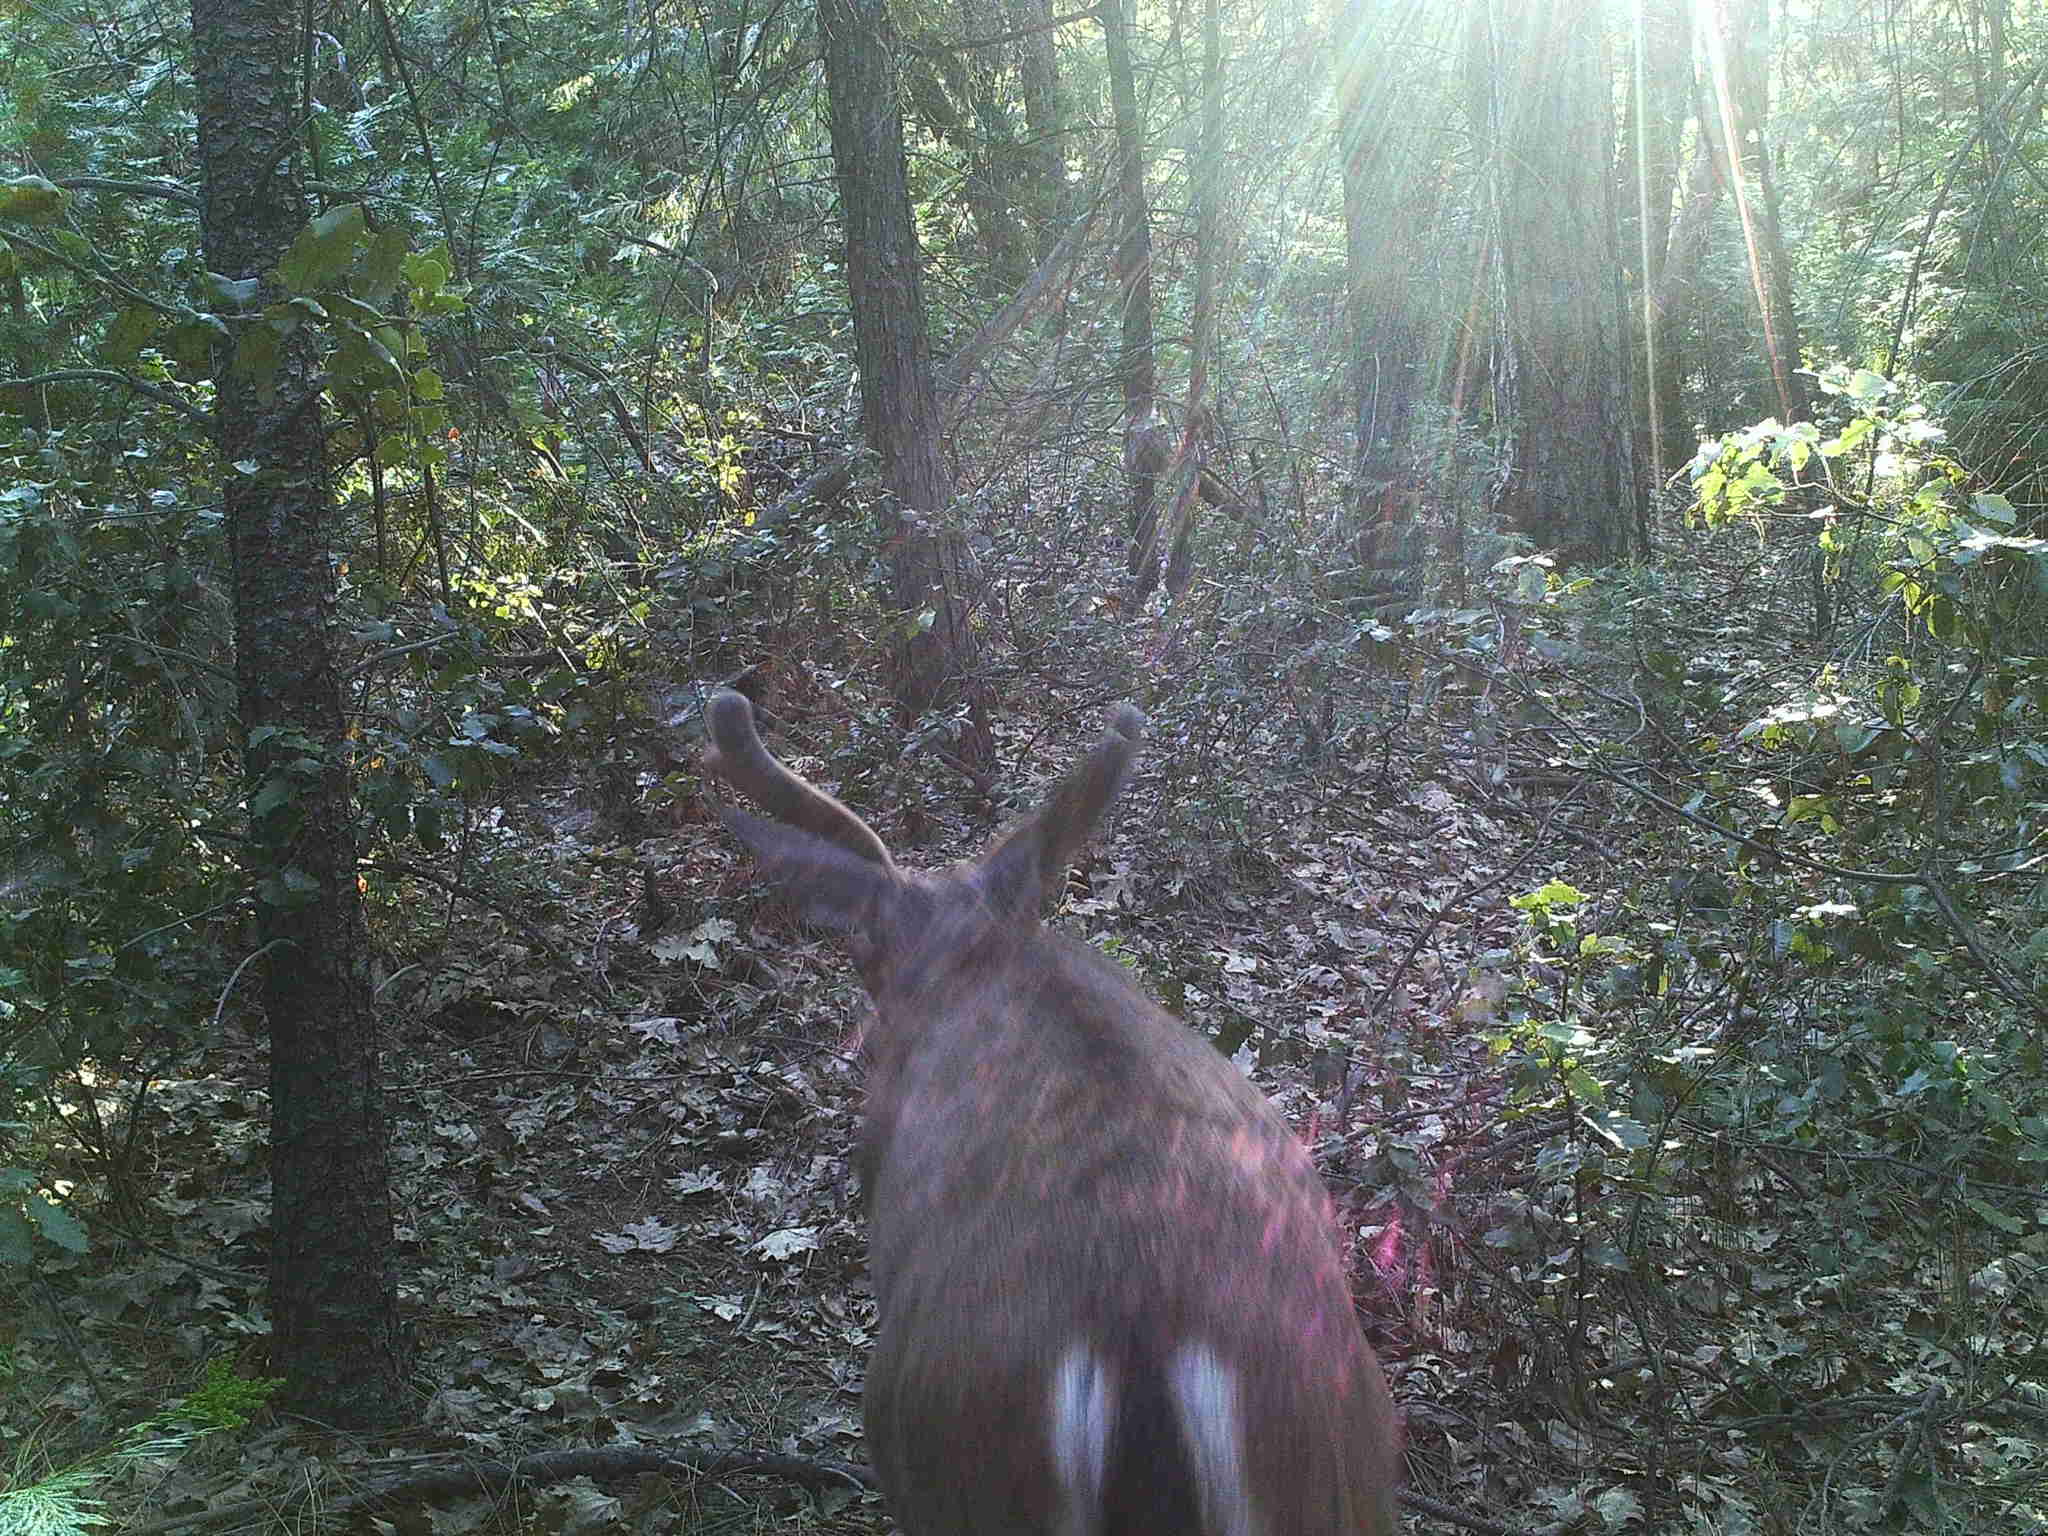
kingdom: Animalia
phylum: Chordata
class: Mammalia
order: Artiodactyla
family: Cervidae
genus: Odocoileus
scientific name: Odocoileus hemionus
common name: Mule deer
